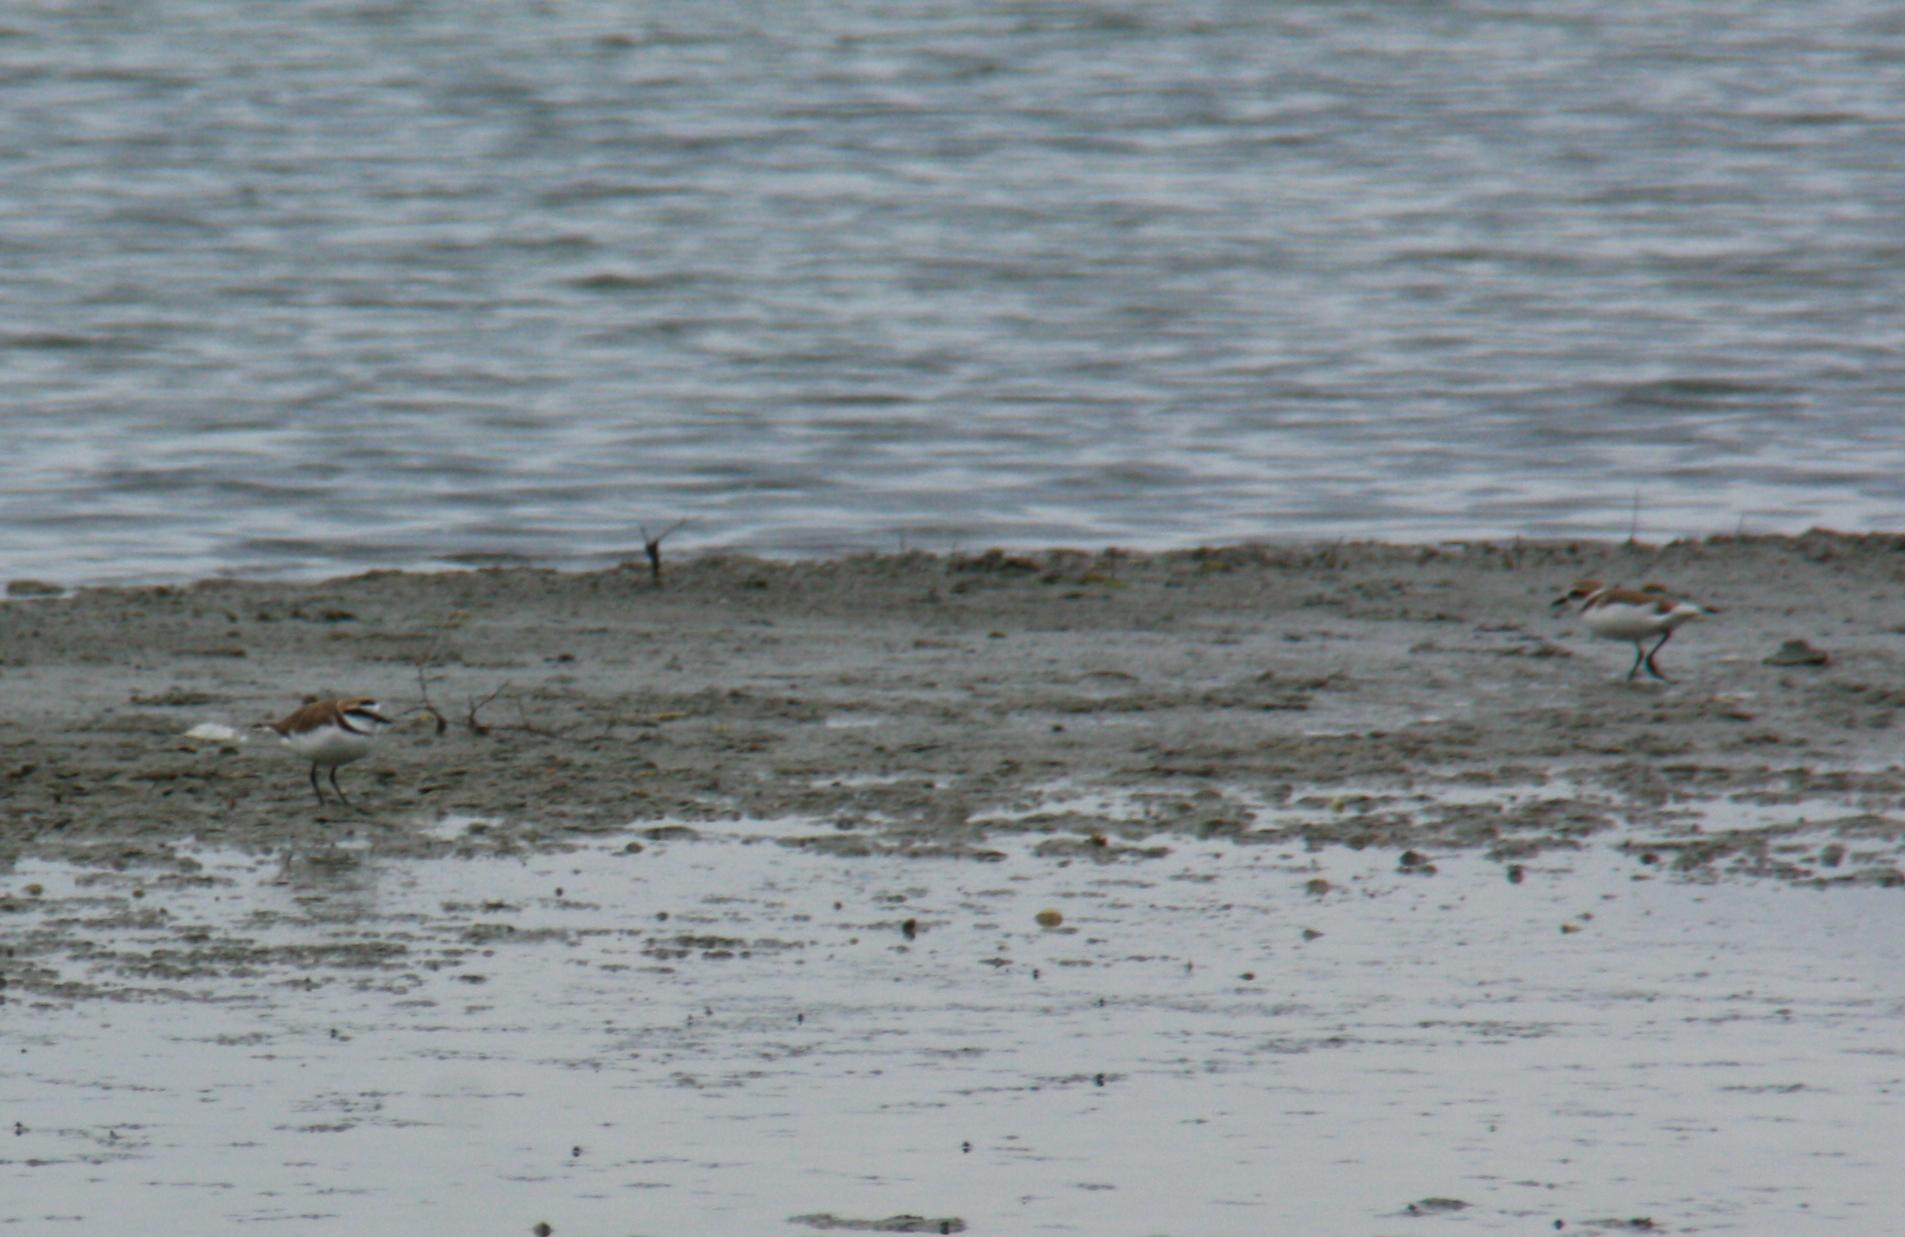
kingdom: Animalia
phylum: Chordata
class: Aves
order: Charadriiformes
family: Charadriidae
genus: Charadrius
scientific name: Charadrius alexandrinus
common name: Kentish plover
